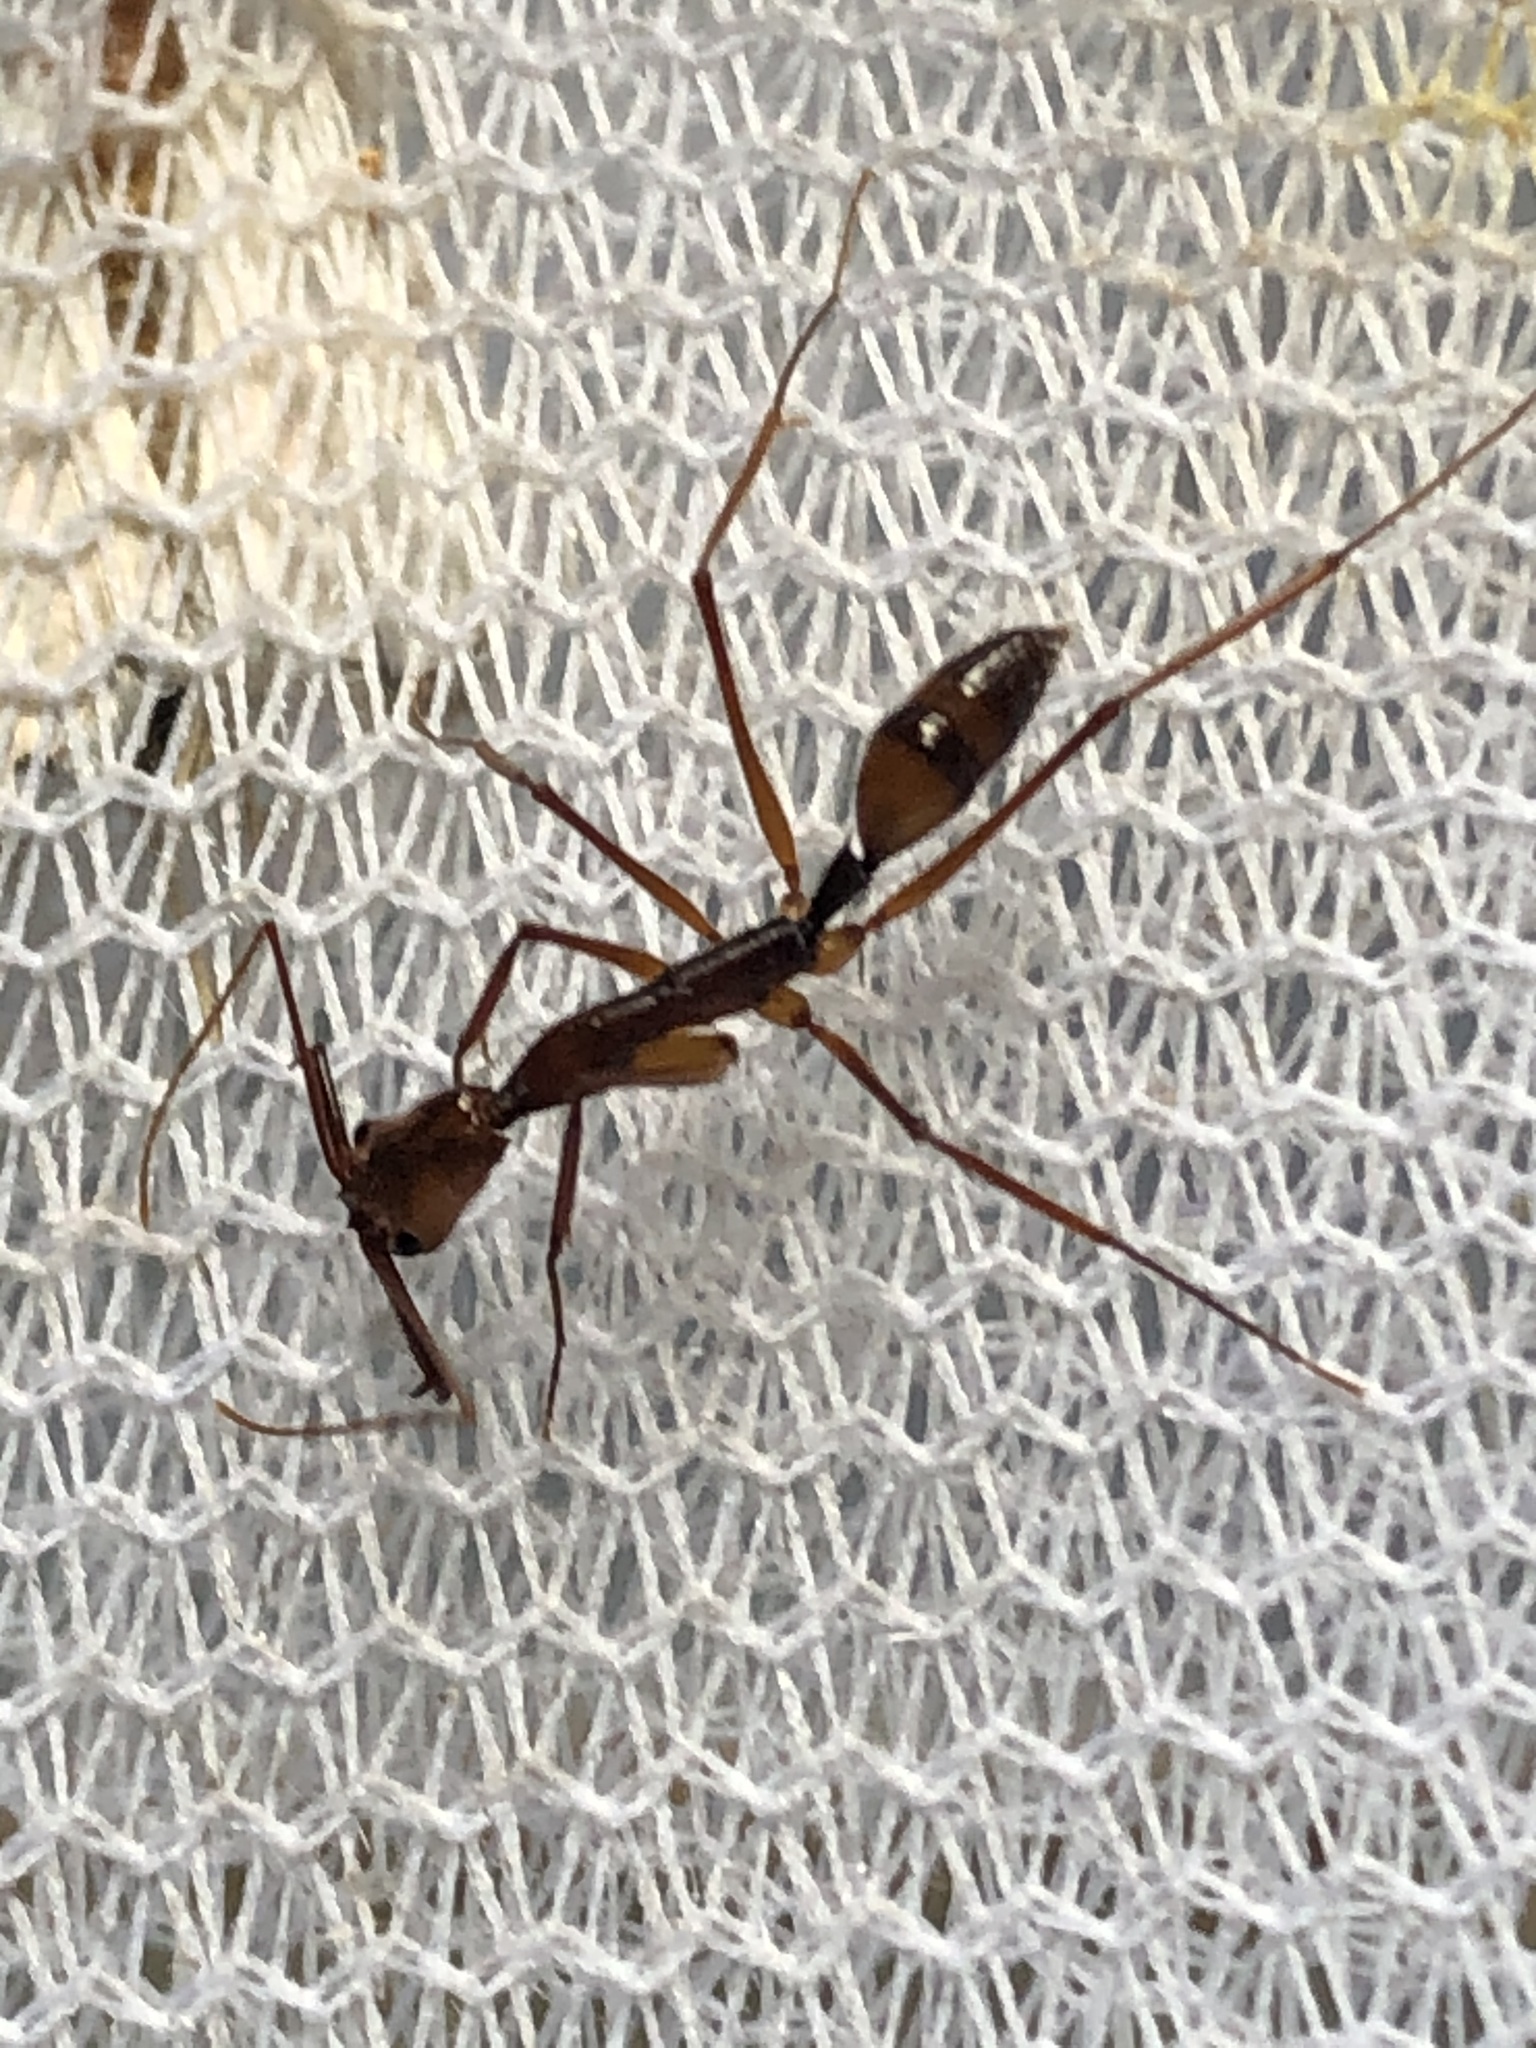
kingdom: Animalia
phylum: Arthropoda
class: Insecta
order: Hymenoptera
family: Formicidae
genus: Odontomachus
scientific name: Odontomachus hastatus
